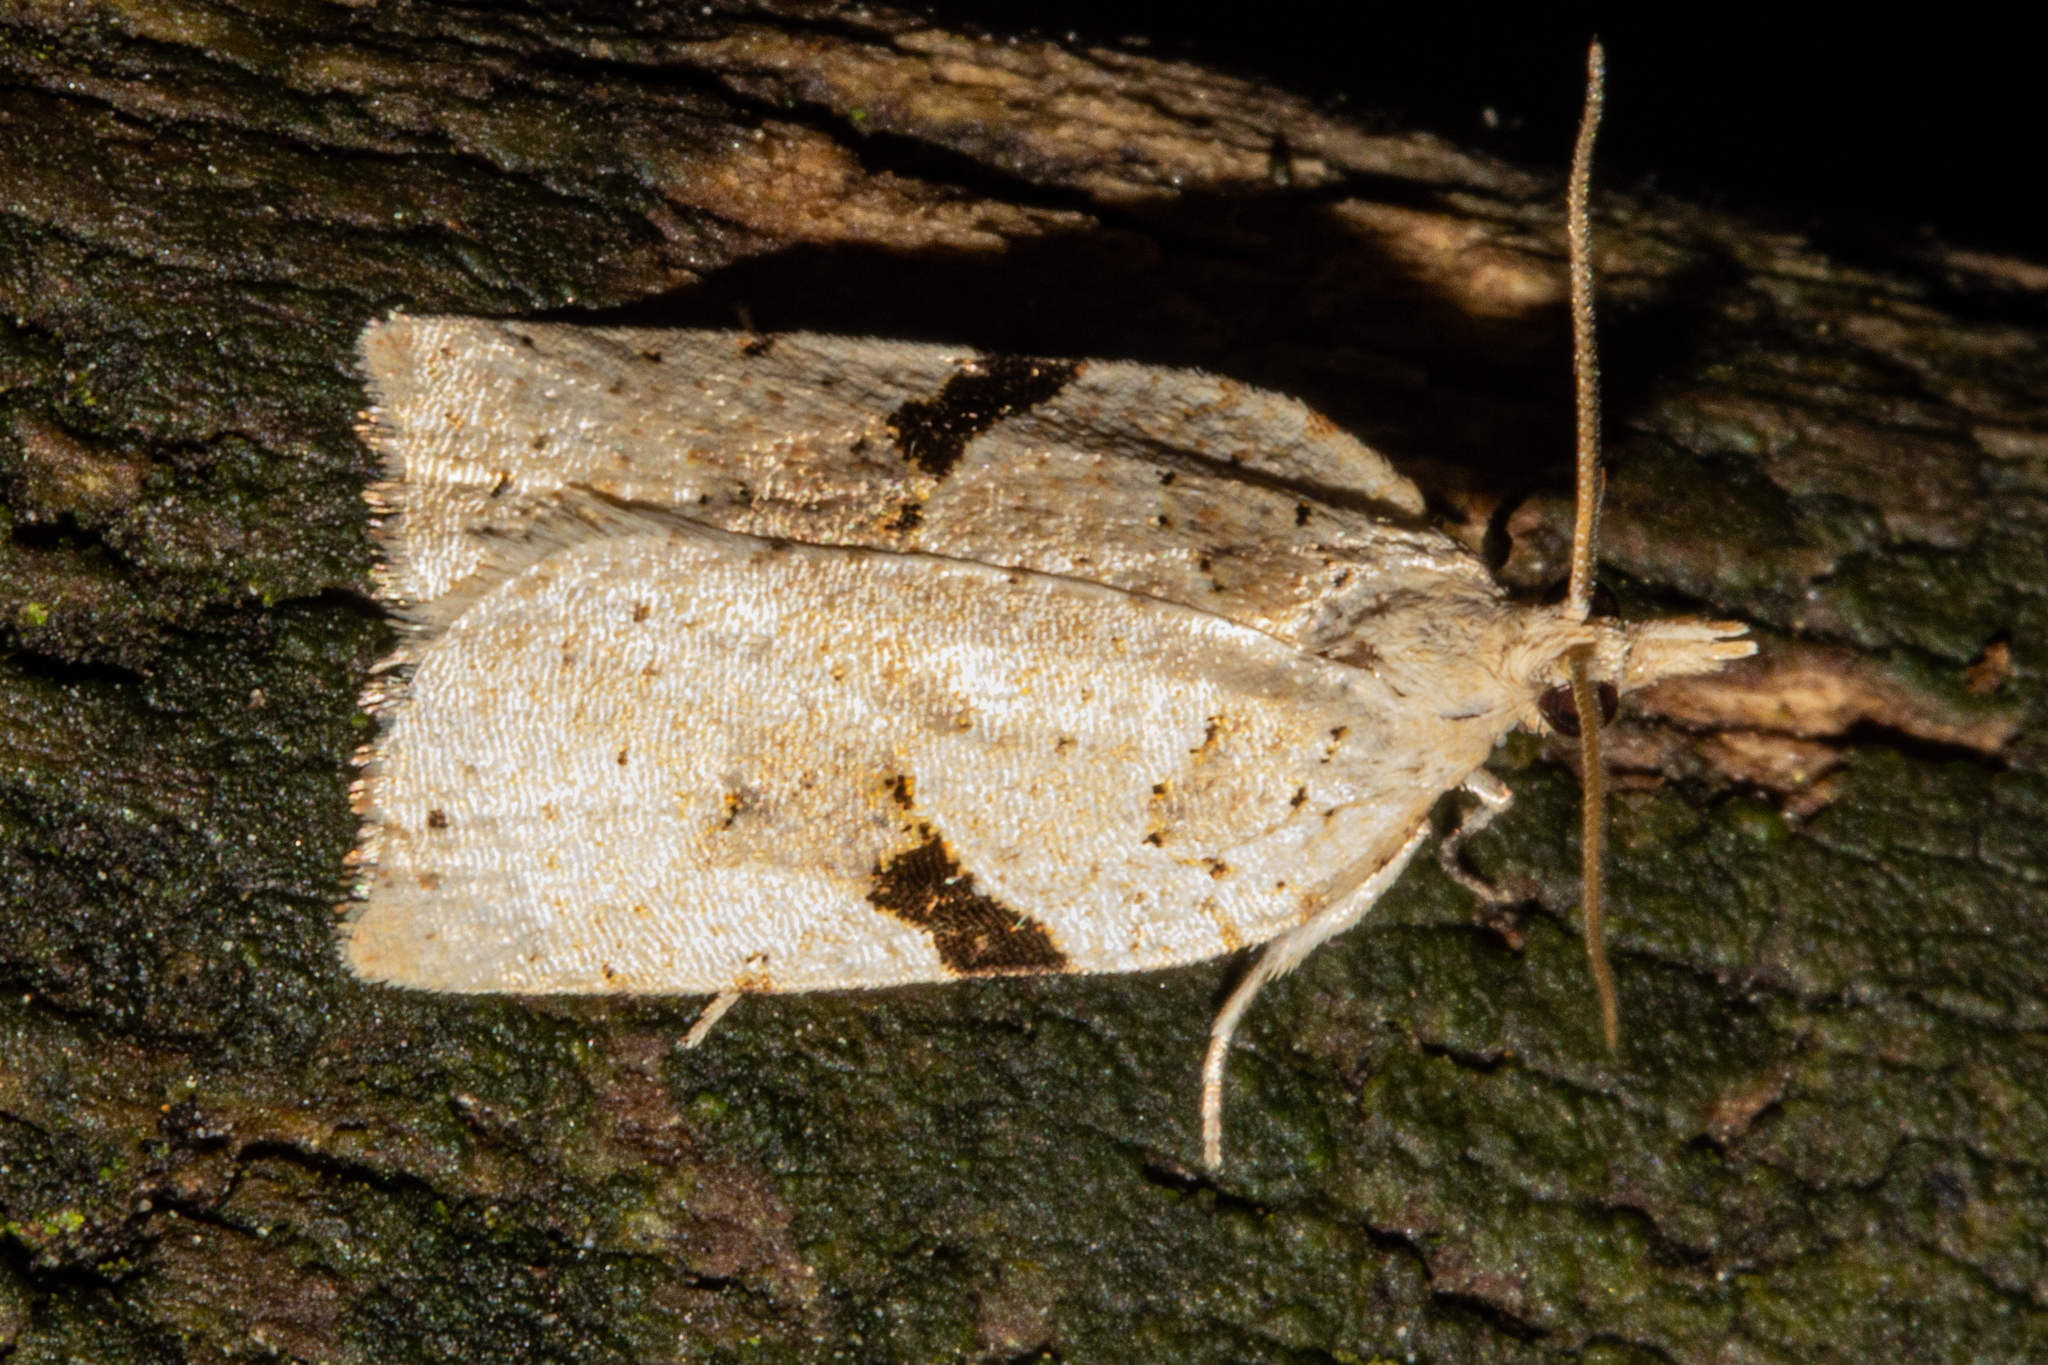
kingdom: Animalia
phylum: Arthropoda
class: Insecta
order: Lepidoptera
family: Tortricidae
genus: Leucotenes
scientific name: Leucotenes coprosmae
